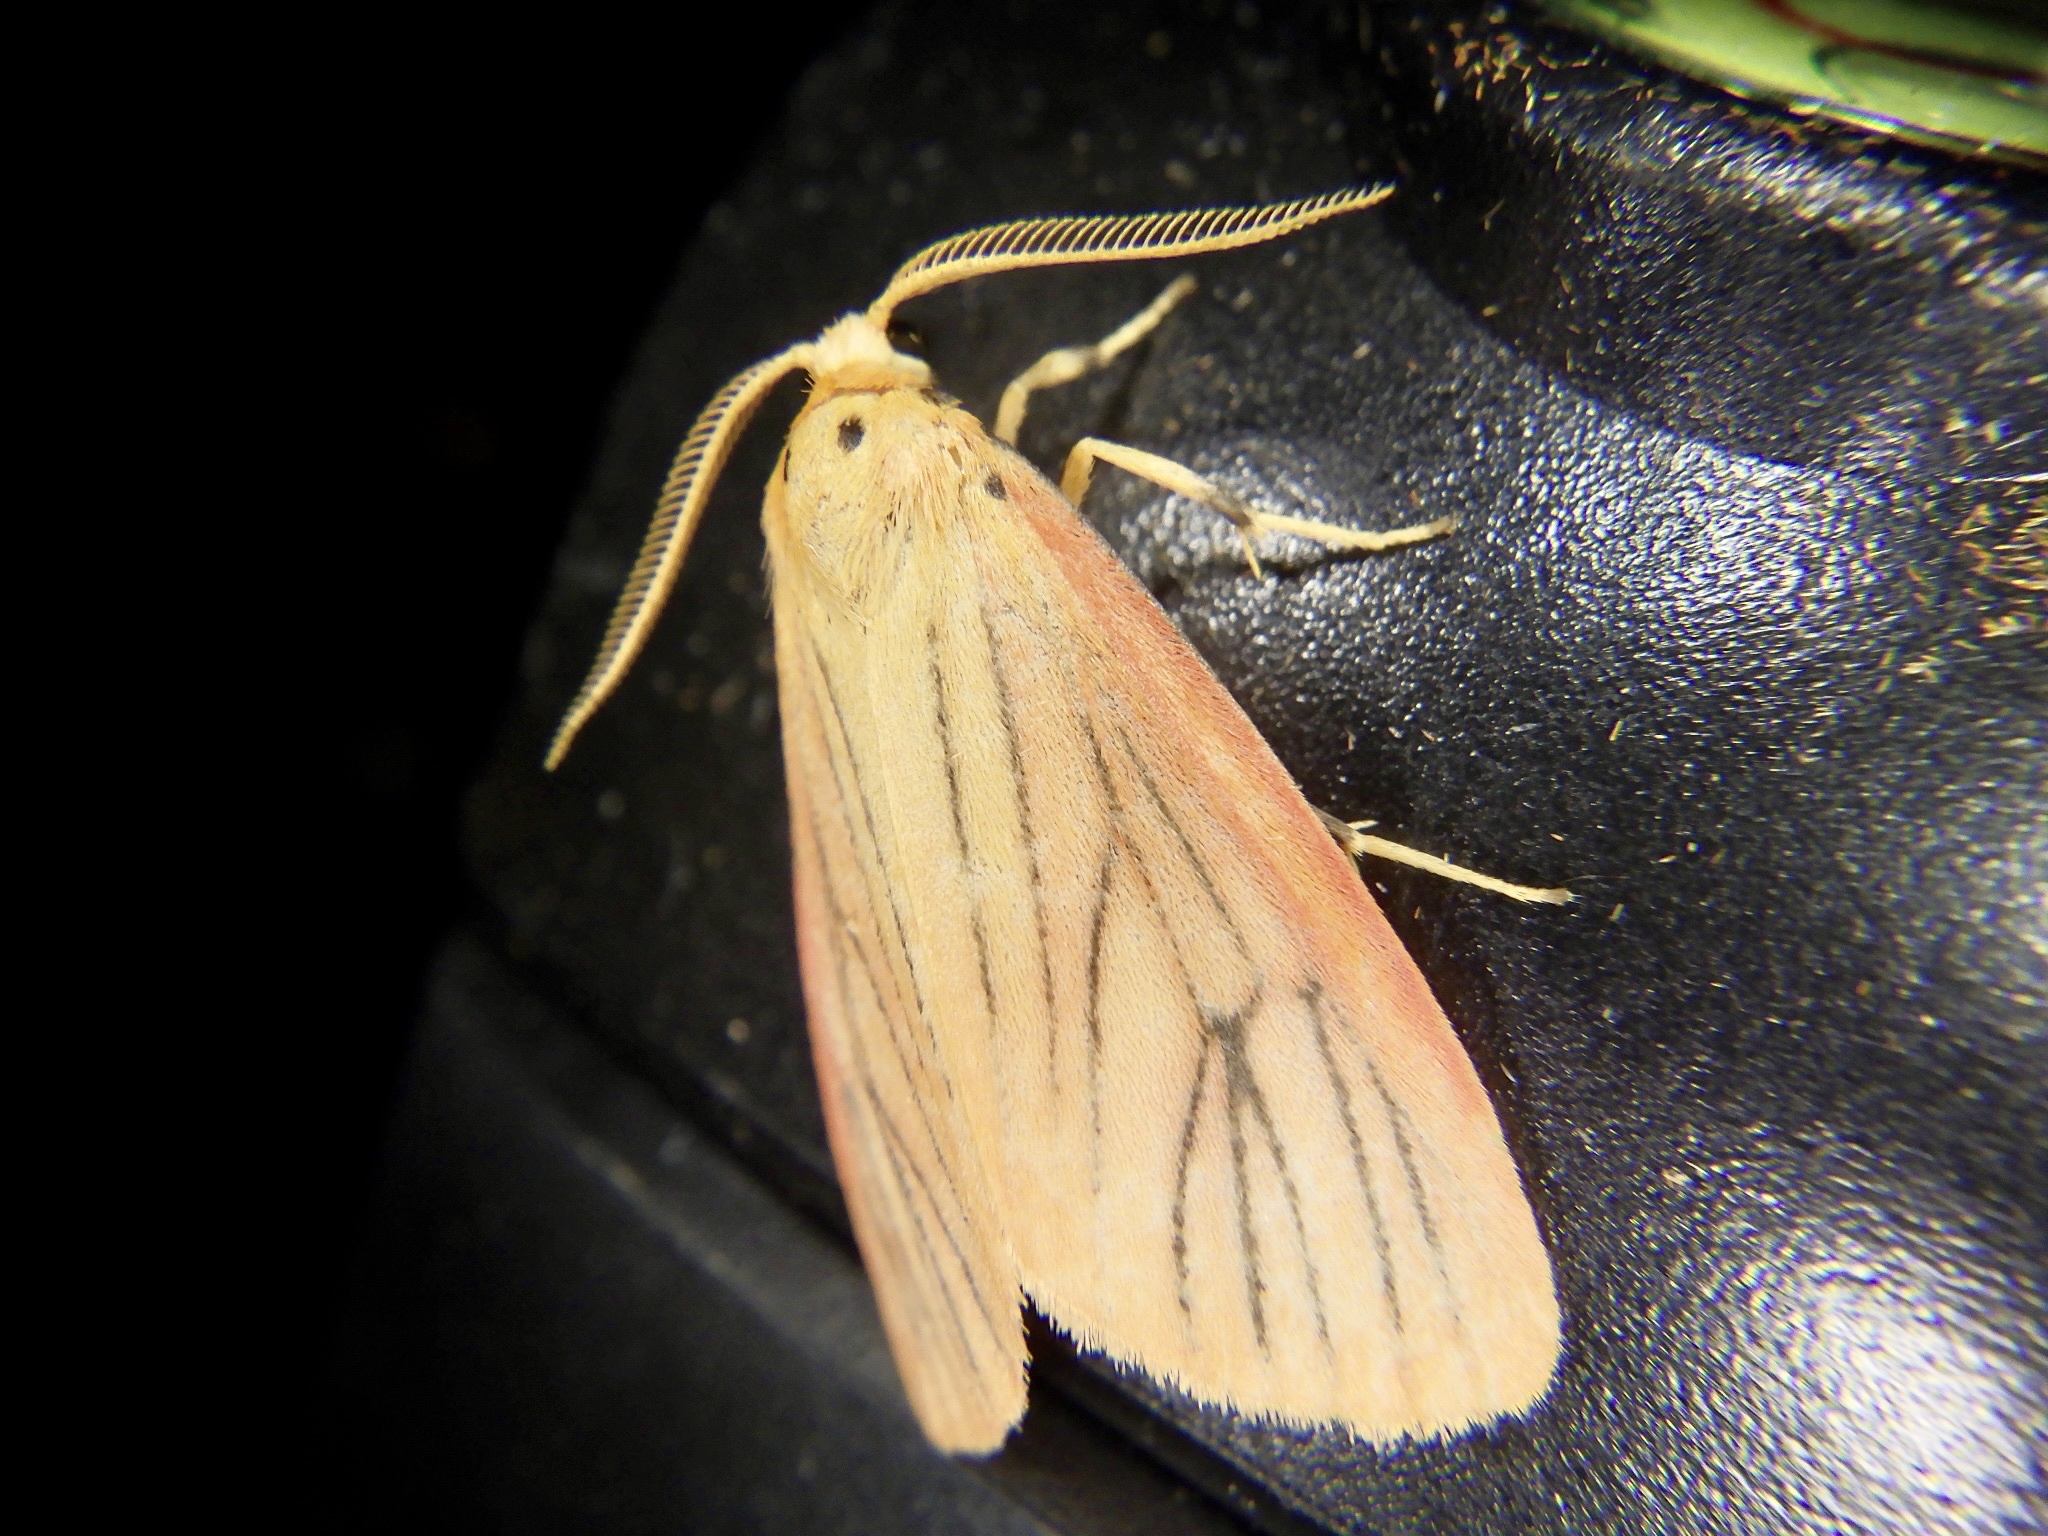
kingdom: Animalia
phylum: Arthropoda
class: Insecta
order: Lepidoptera
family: Erebidae
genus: Melanaema
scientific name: Melanaema venata
